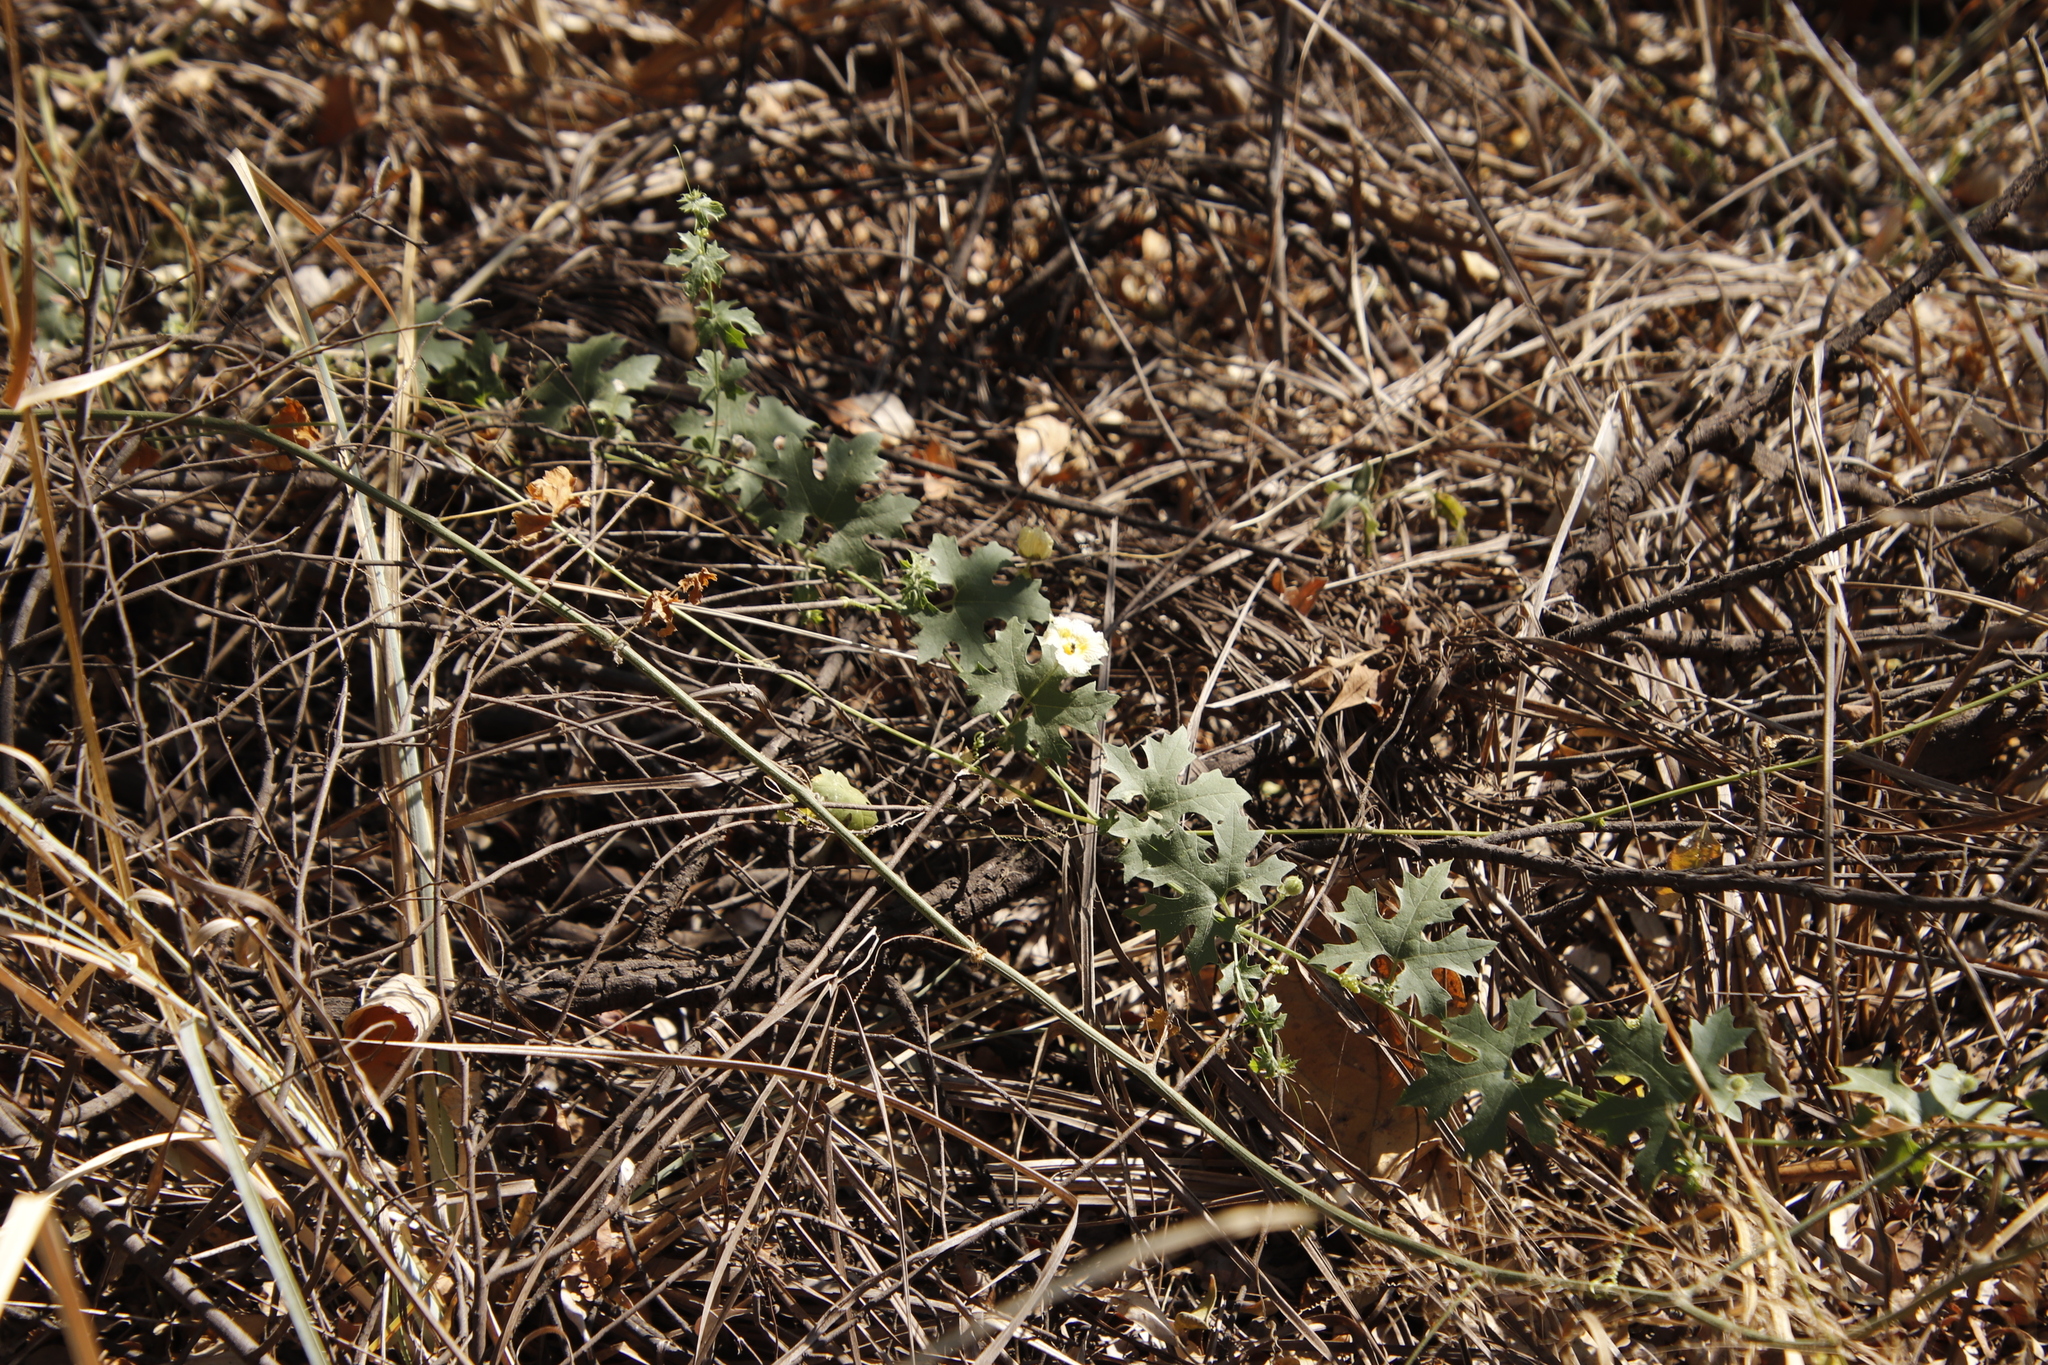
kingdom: Plantae
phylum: Tracheophyta
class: Magnoliopsida
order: Cucurbitales
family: Cucurbitaceae
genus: Momordica
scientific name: Momordica balsamina
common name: Southern balsampear
